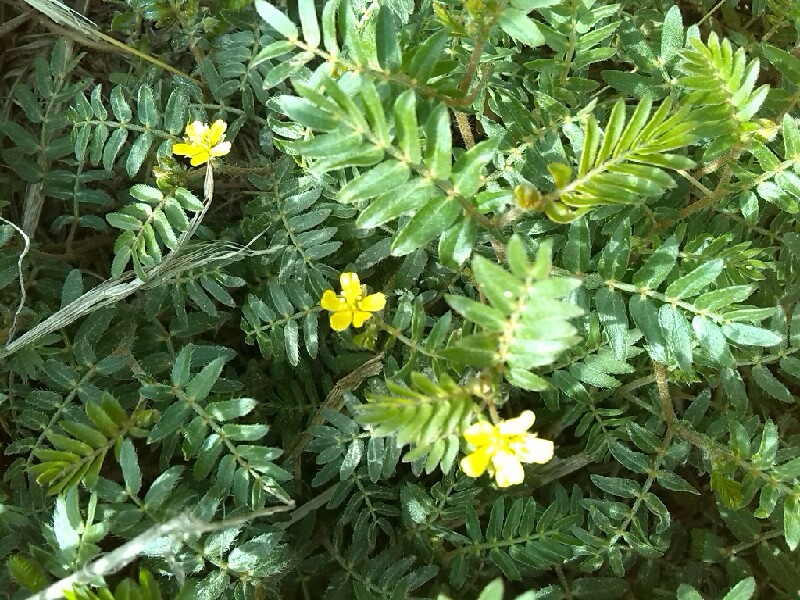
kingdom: Plantae
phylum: Tracheophyta
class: Magnoliopsida
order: Zygophyllales
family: Zygophyllaceae
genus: Tribulus
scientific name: Tribulus terrestris
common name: Puncturevine
